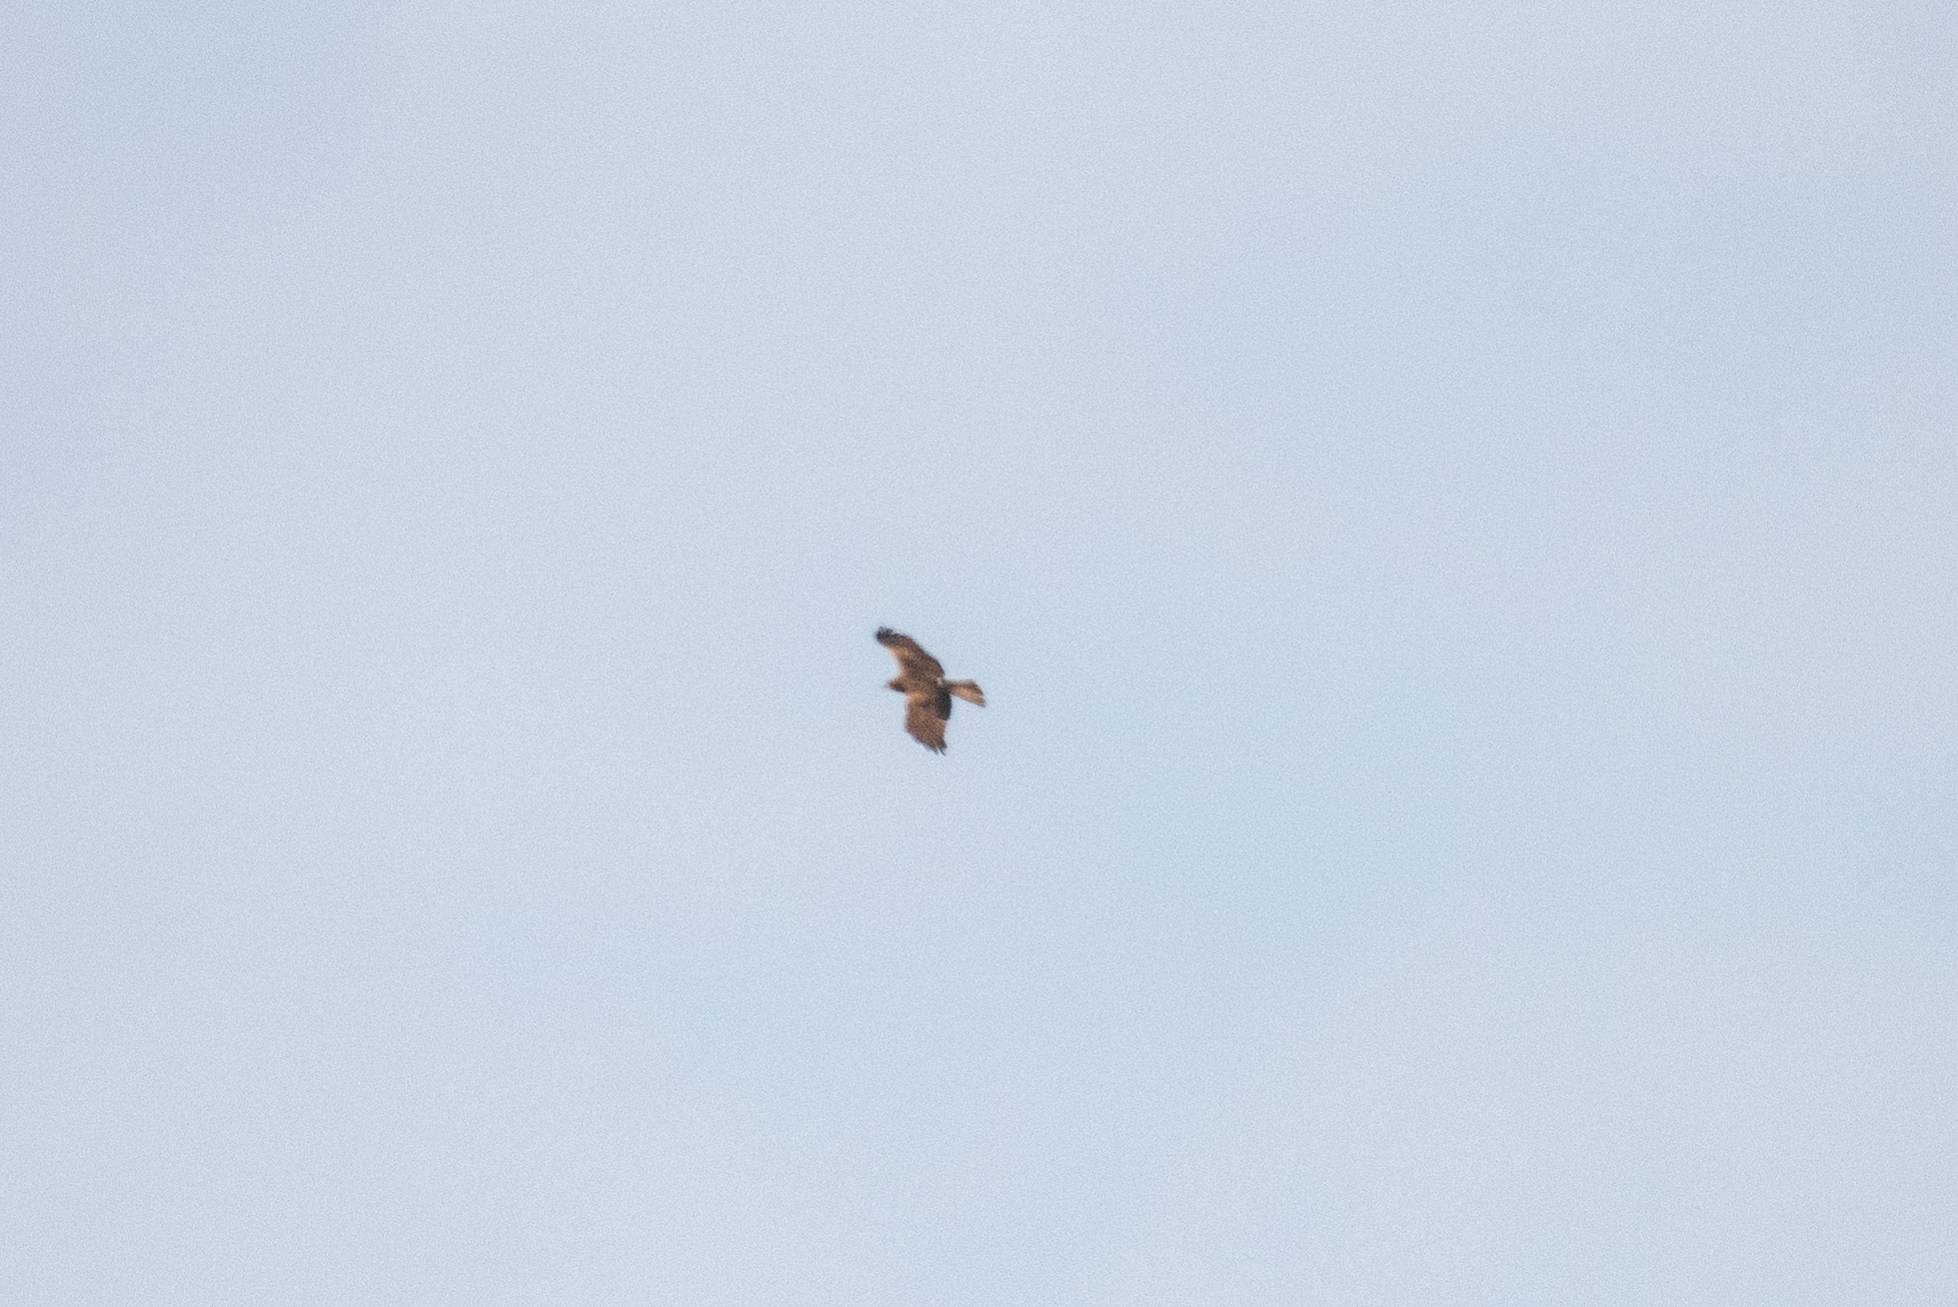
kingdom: Animalia
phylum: Chordata
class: Aves
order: Accipitriformes
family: Accipitridae
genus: Circus
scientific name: Circus aeruginosus
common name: Western marsh harrier
